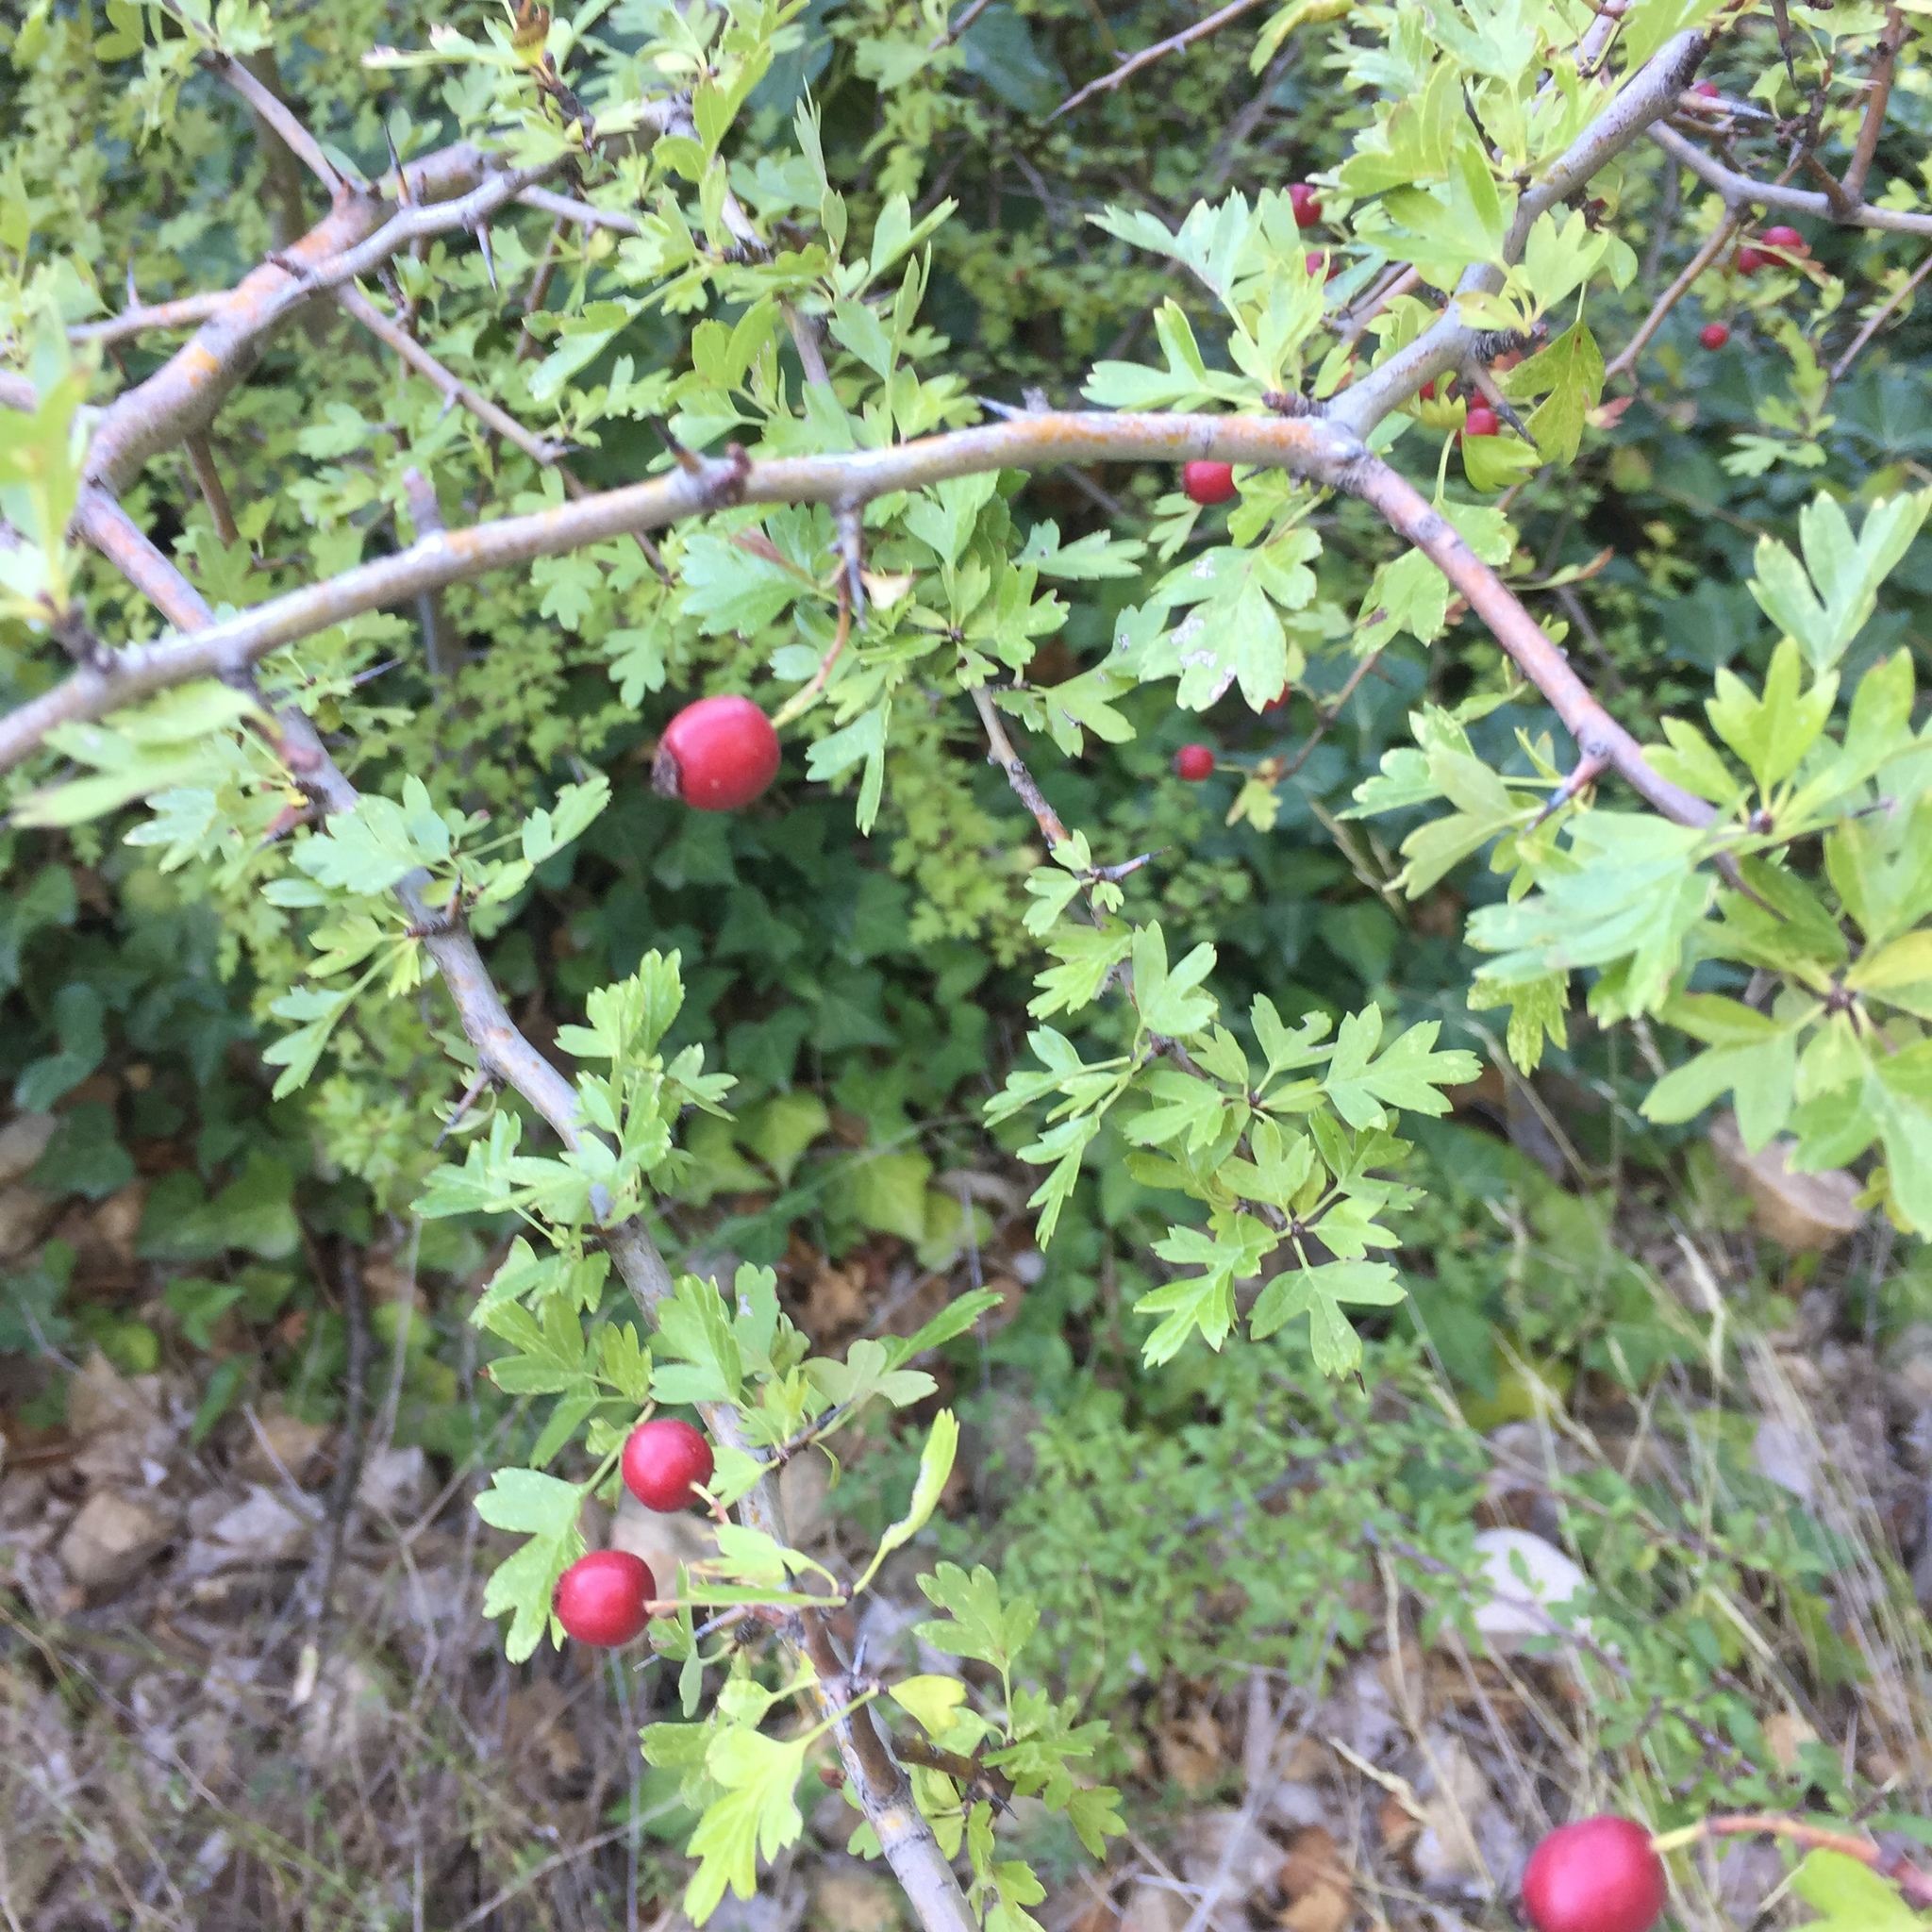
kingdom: Plantae
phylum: Tracheophyta
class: Magnoliopsida
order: Rosales
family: Rosaceae
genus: Crataegus
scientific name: Crataegus monogyna
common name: Hawthorn
